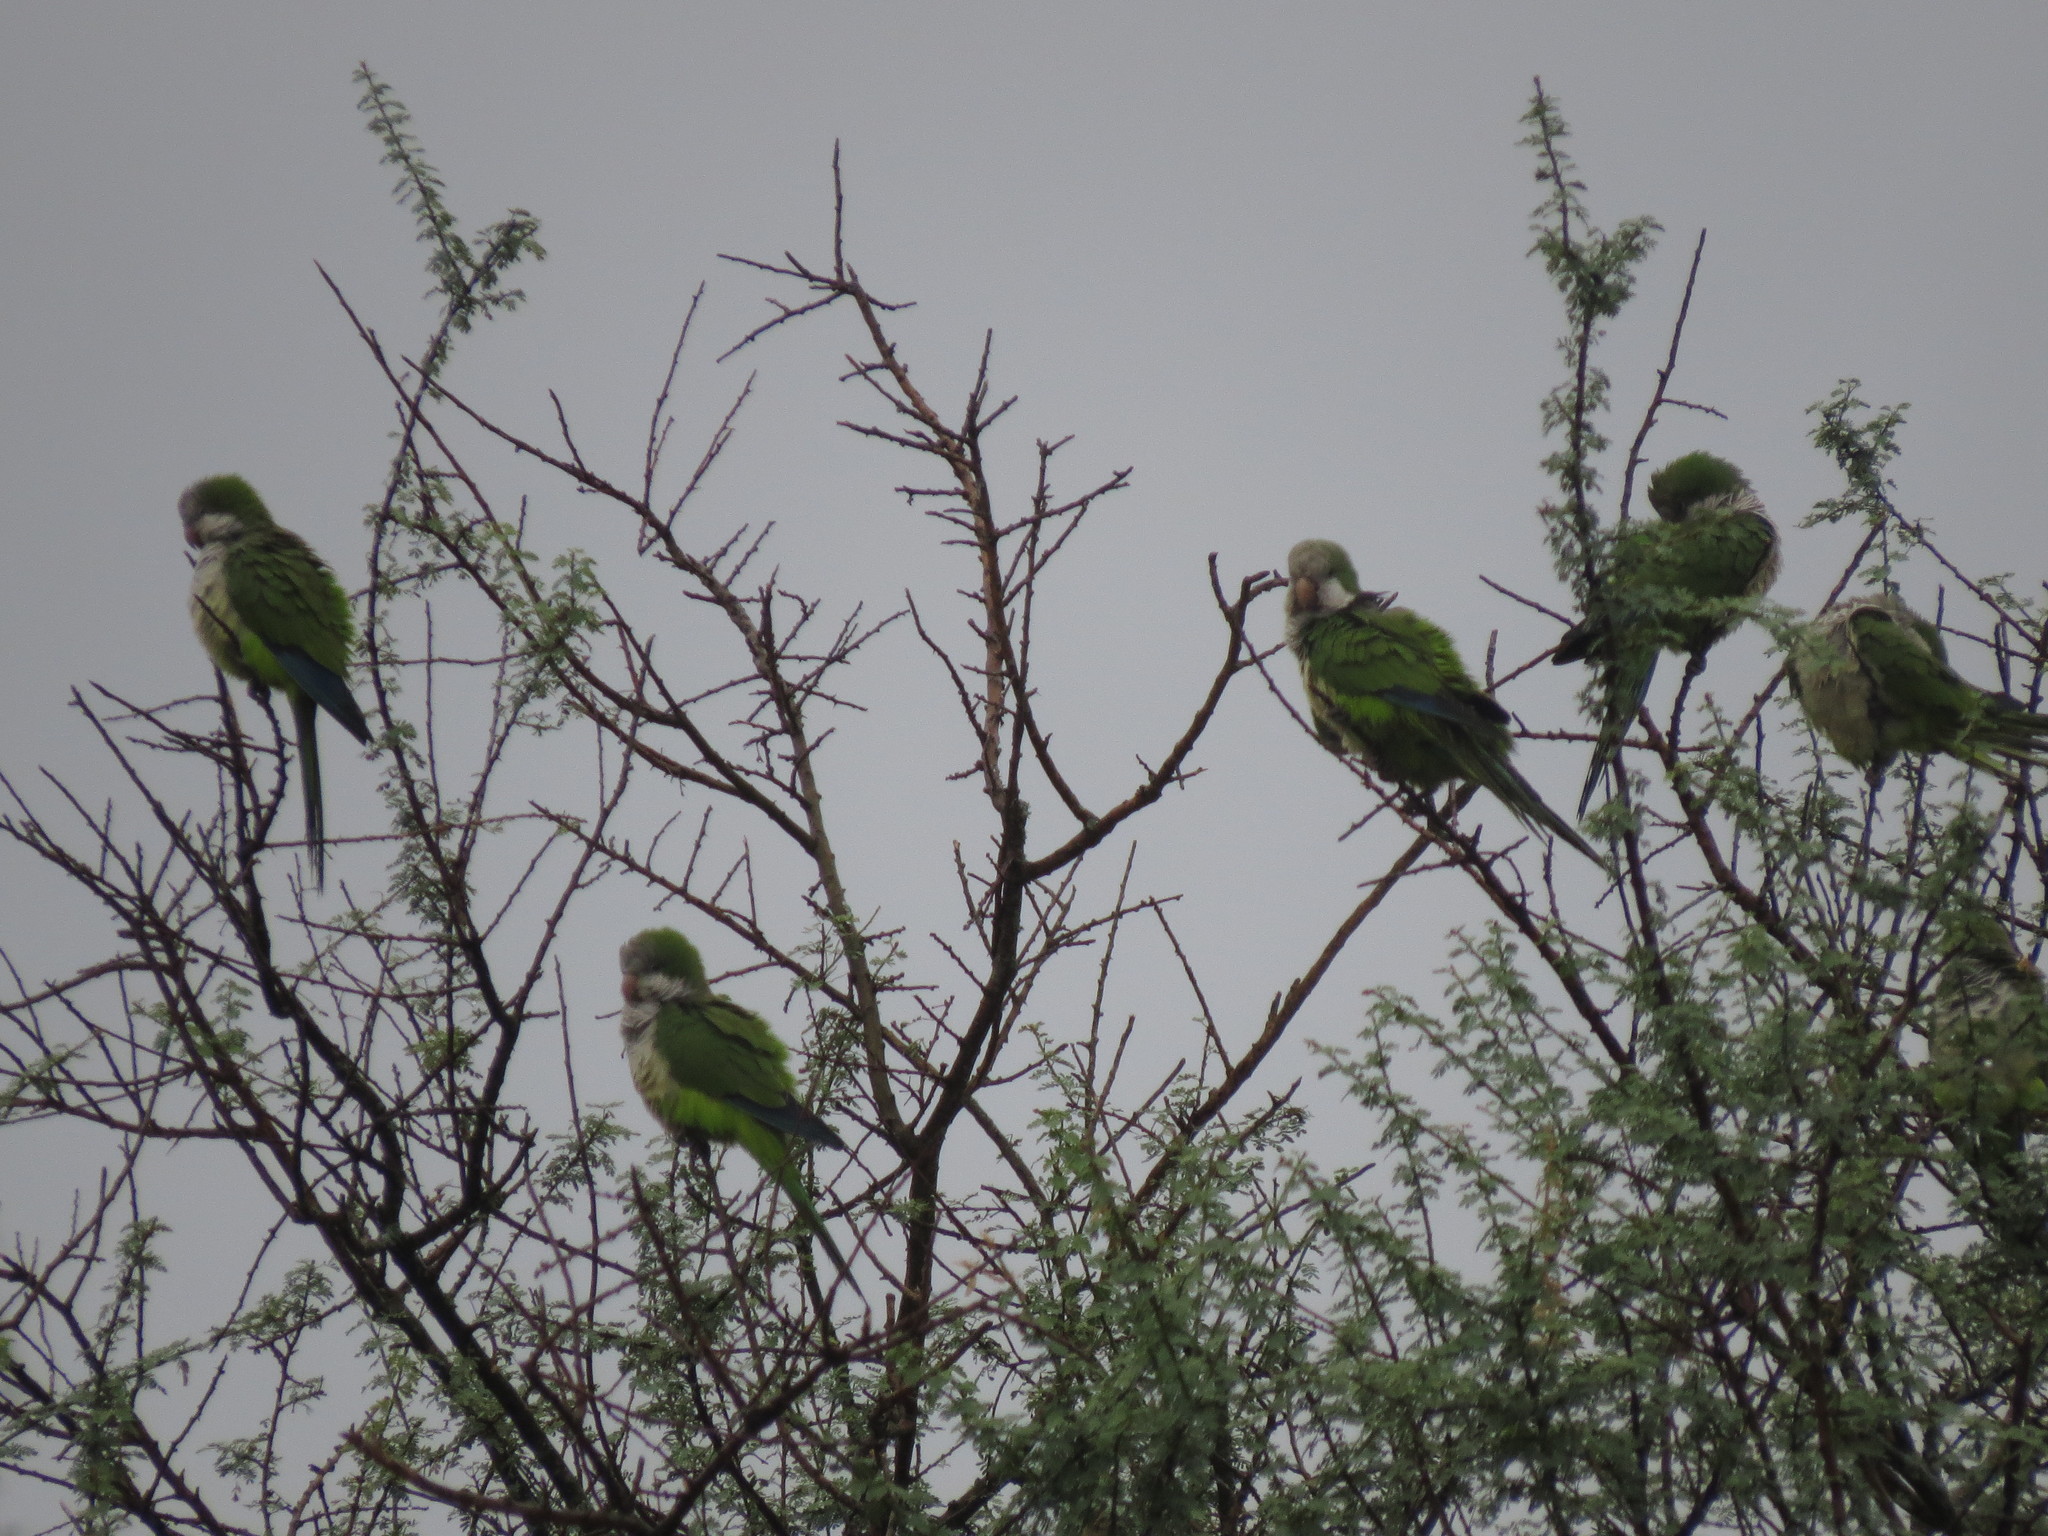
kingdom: Animalia
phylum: Chordata
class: Aves
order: Psittaciformes
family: Psittacidae
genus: Myiopsitta
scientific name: Myiopsitta monachus
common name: Monk parakeet
